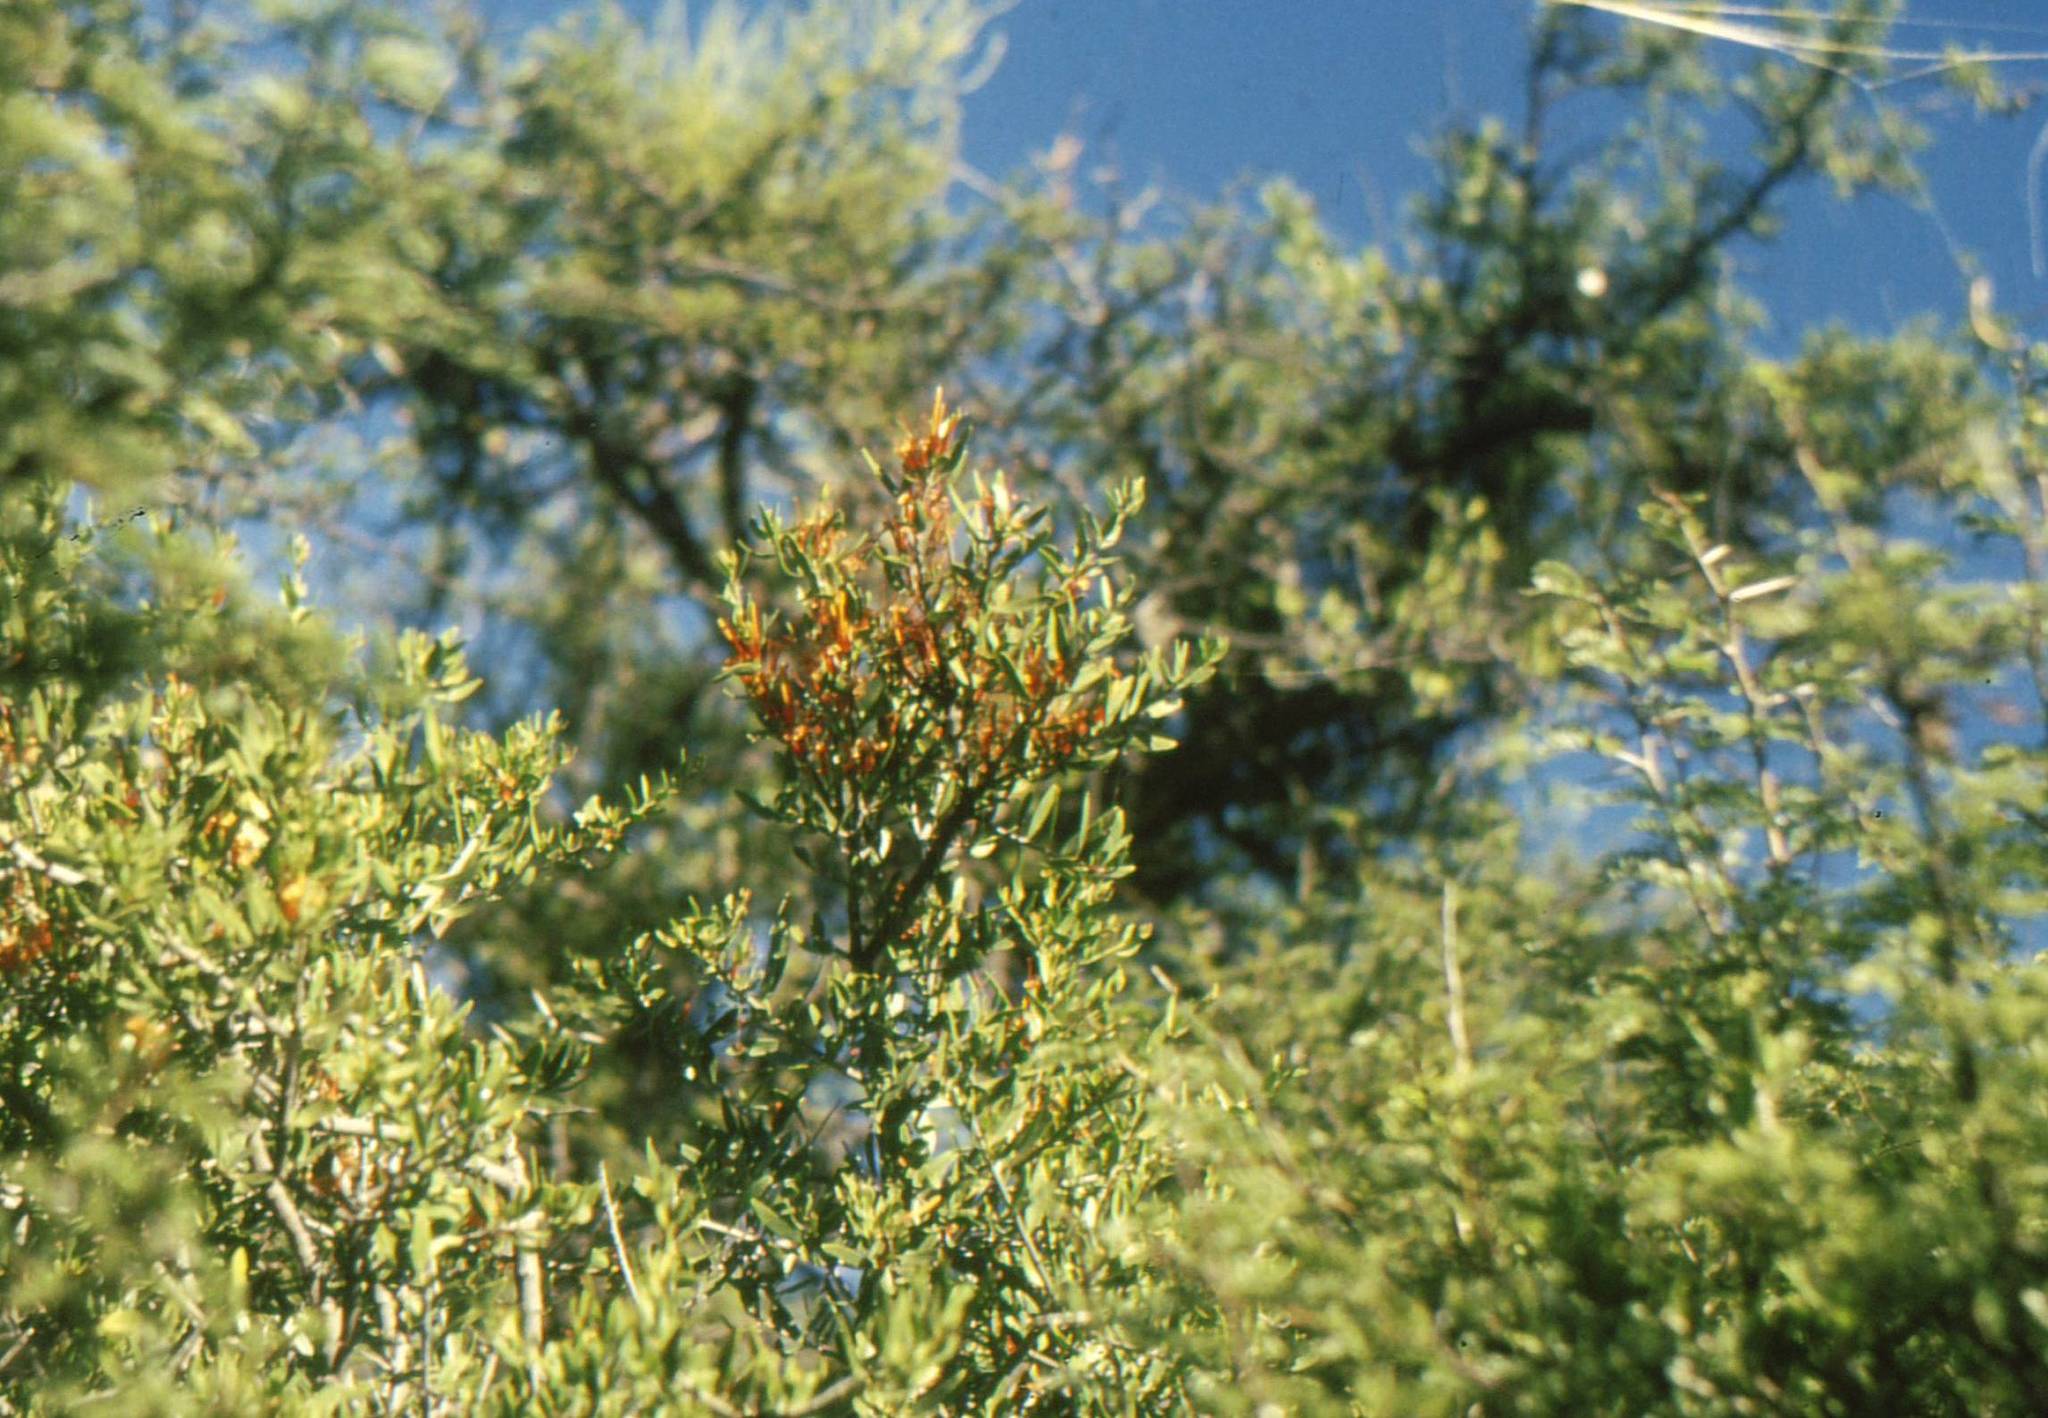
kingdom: Plantae
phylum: Tracheophyta
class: Magnoliopsida
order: Santalales
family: Loranthaceae
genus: Moquiniella
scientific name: Moquiniella rubra
